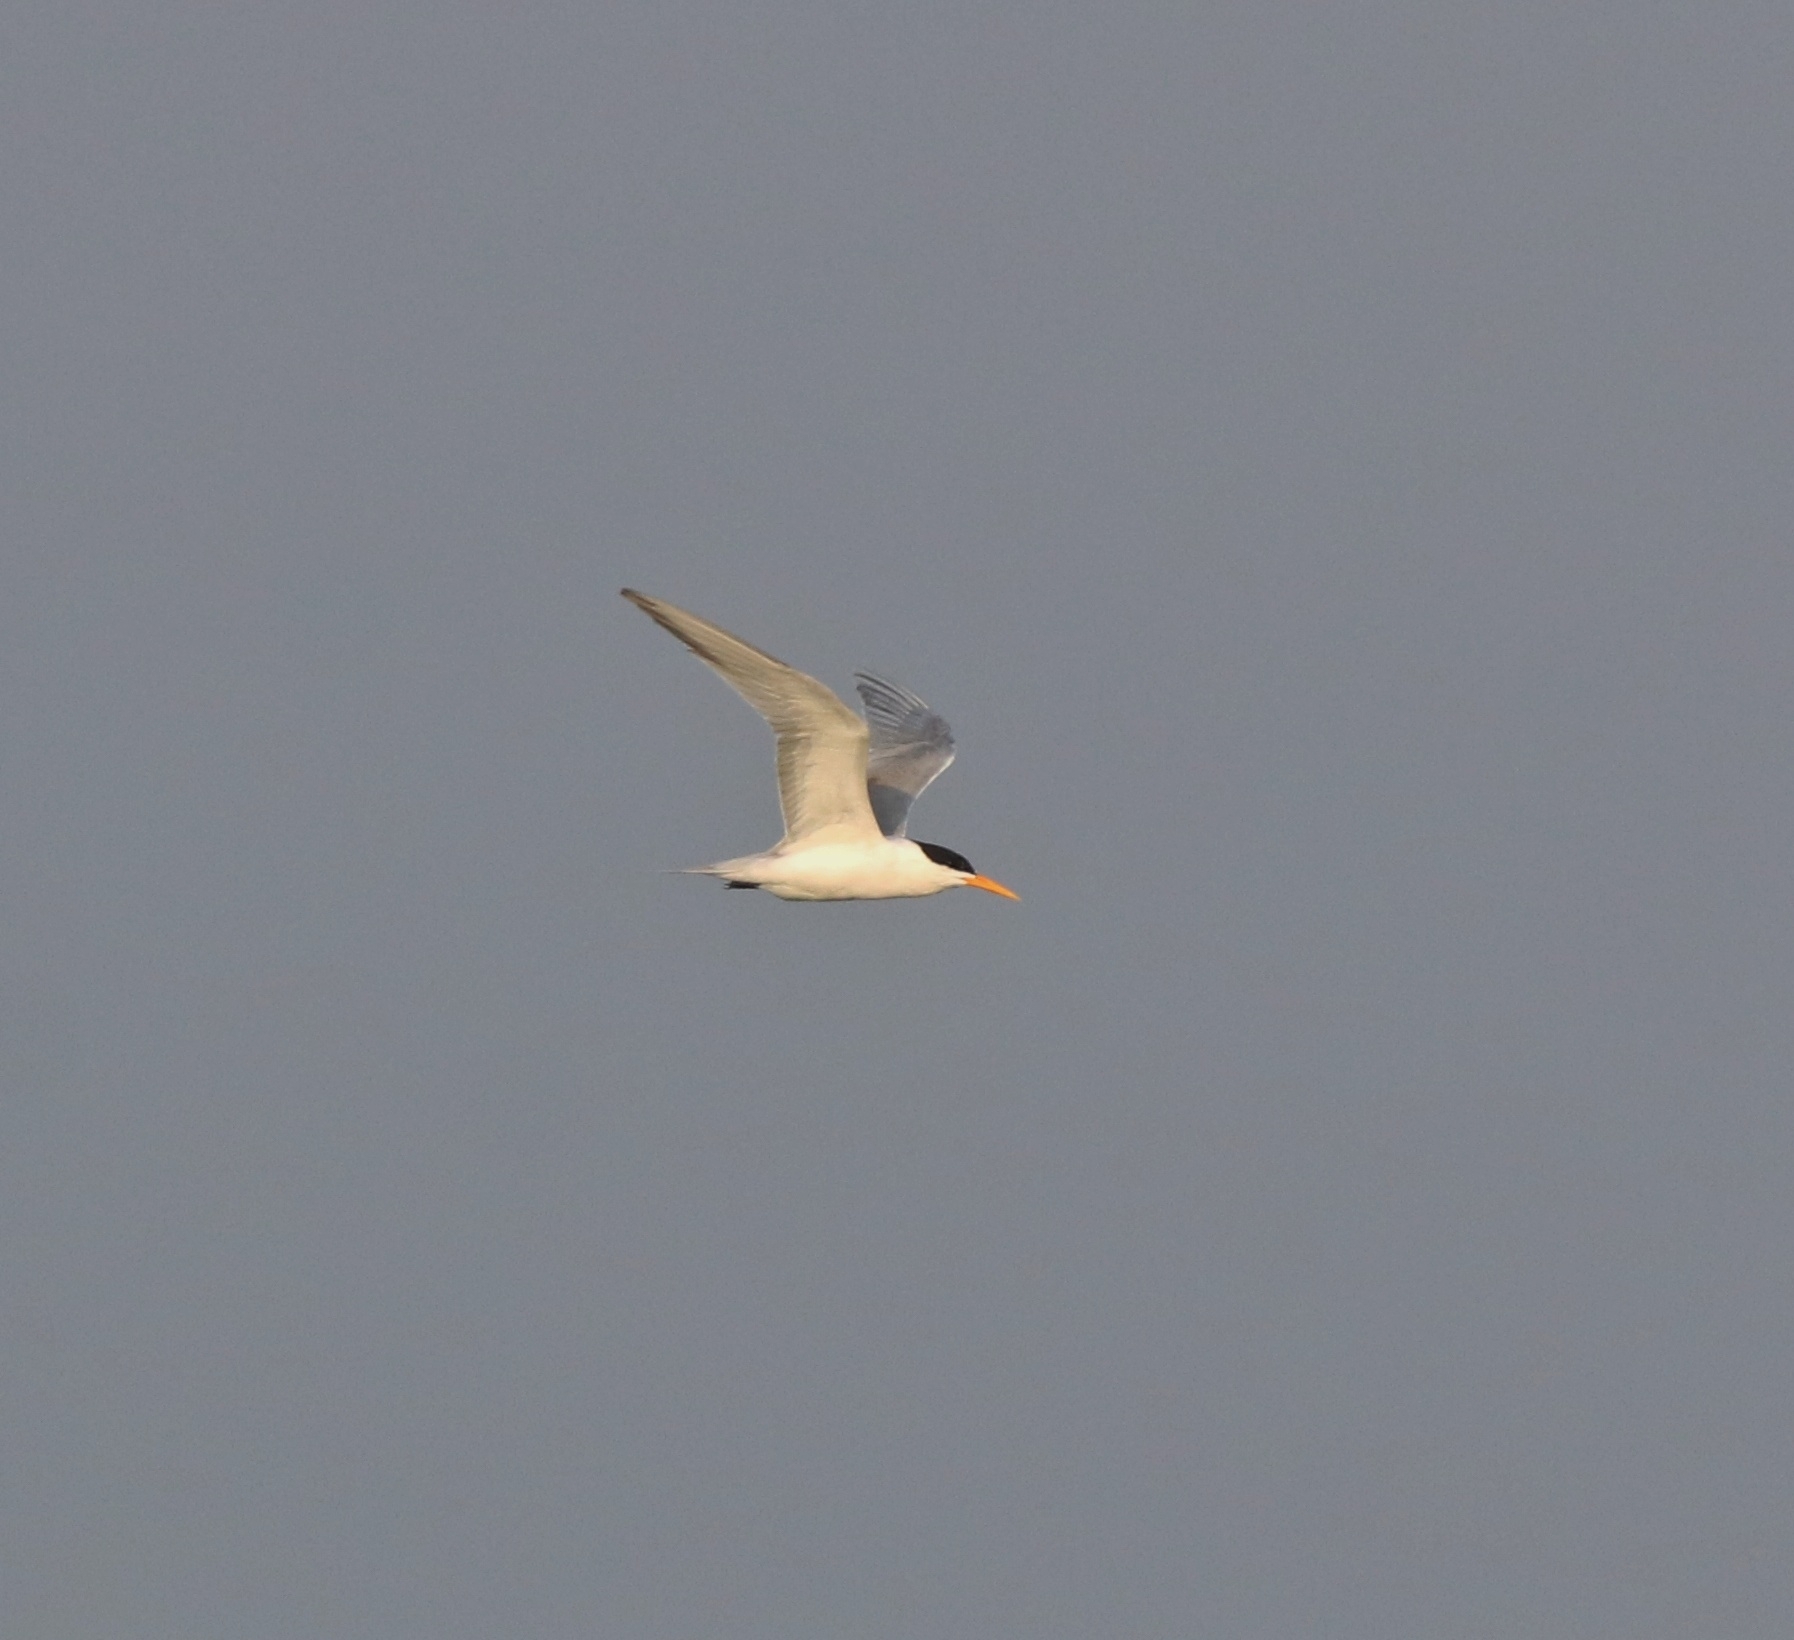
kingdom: Animalia
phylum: Chordata
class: Aves
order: Charadriiformes
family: Laridae
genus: Thalasseus
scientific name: Thalasseus bengalensis
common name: Lesser crested tern
